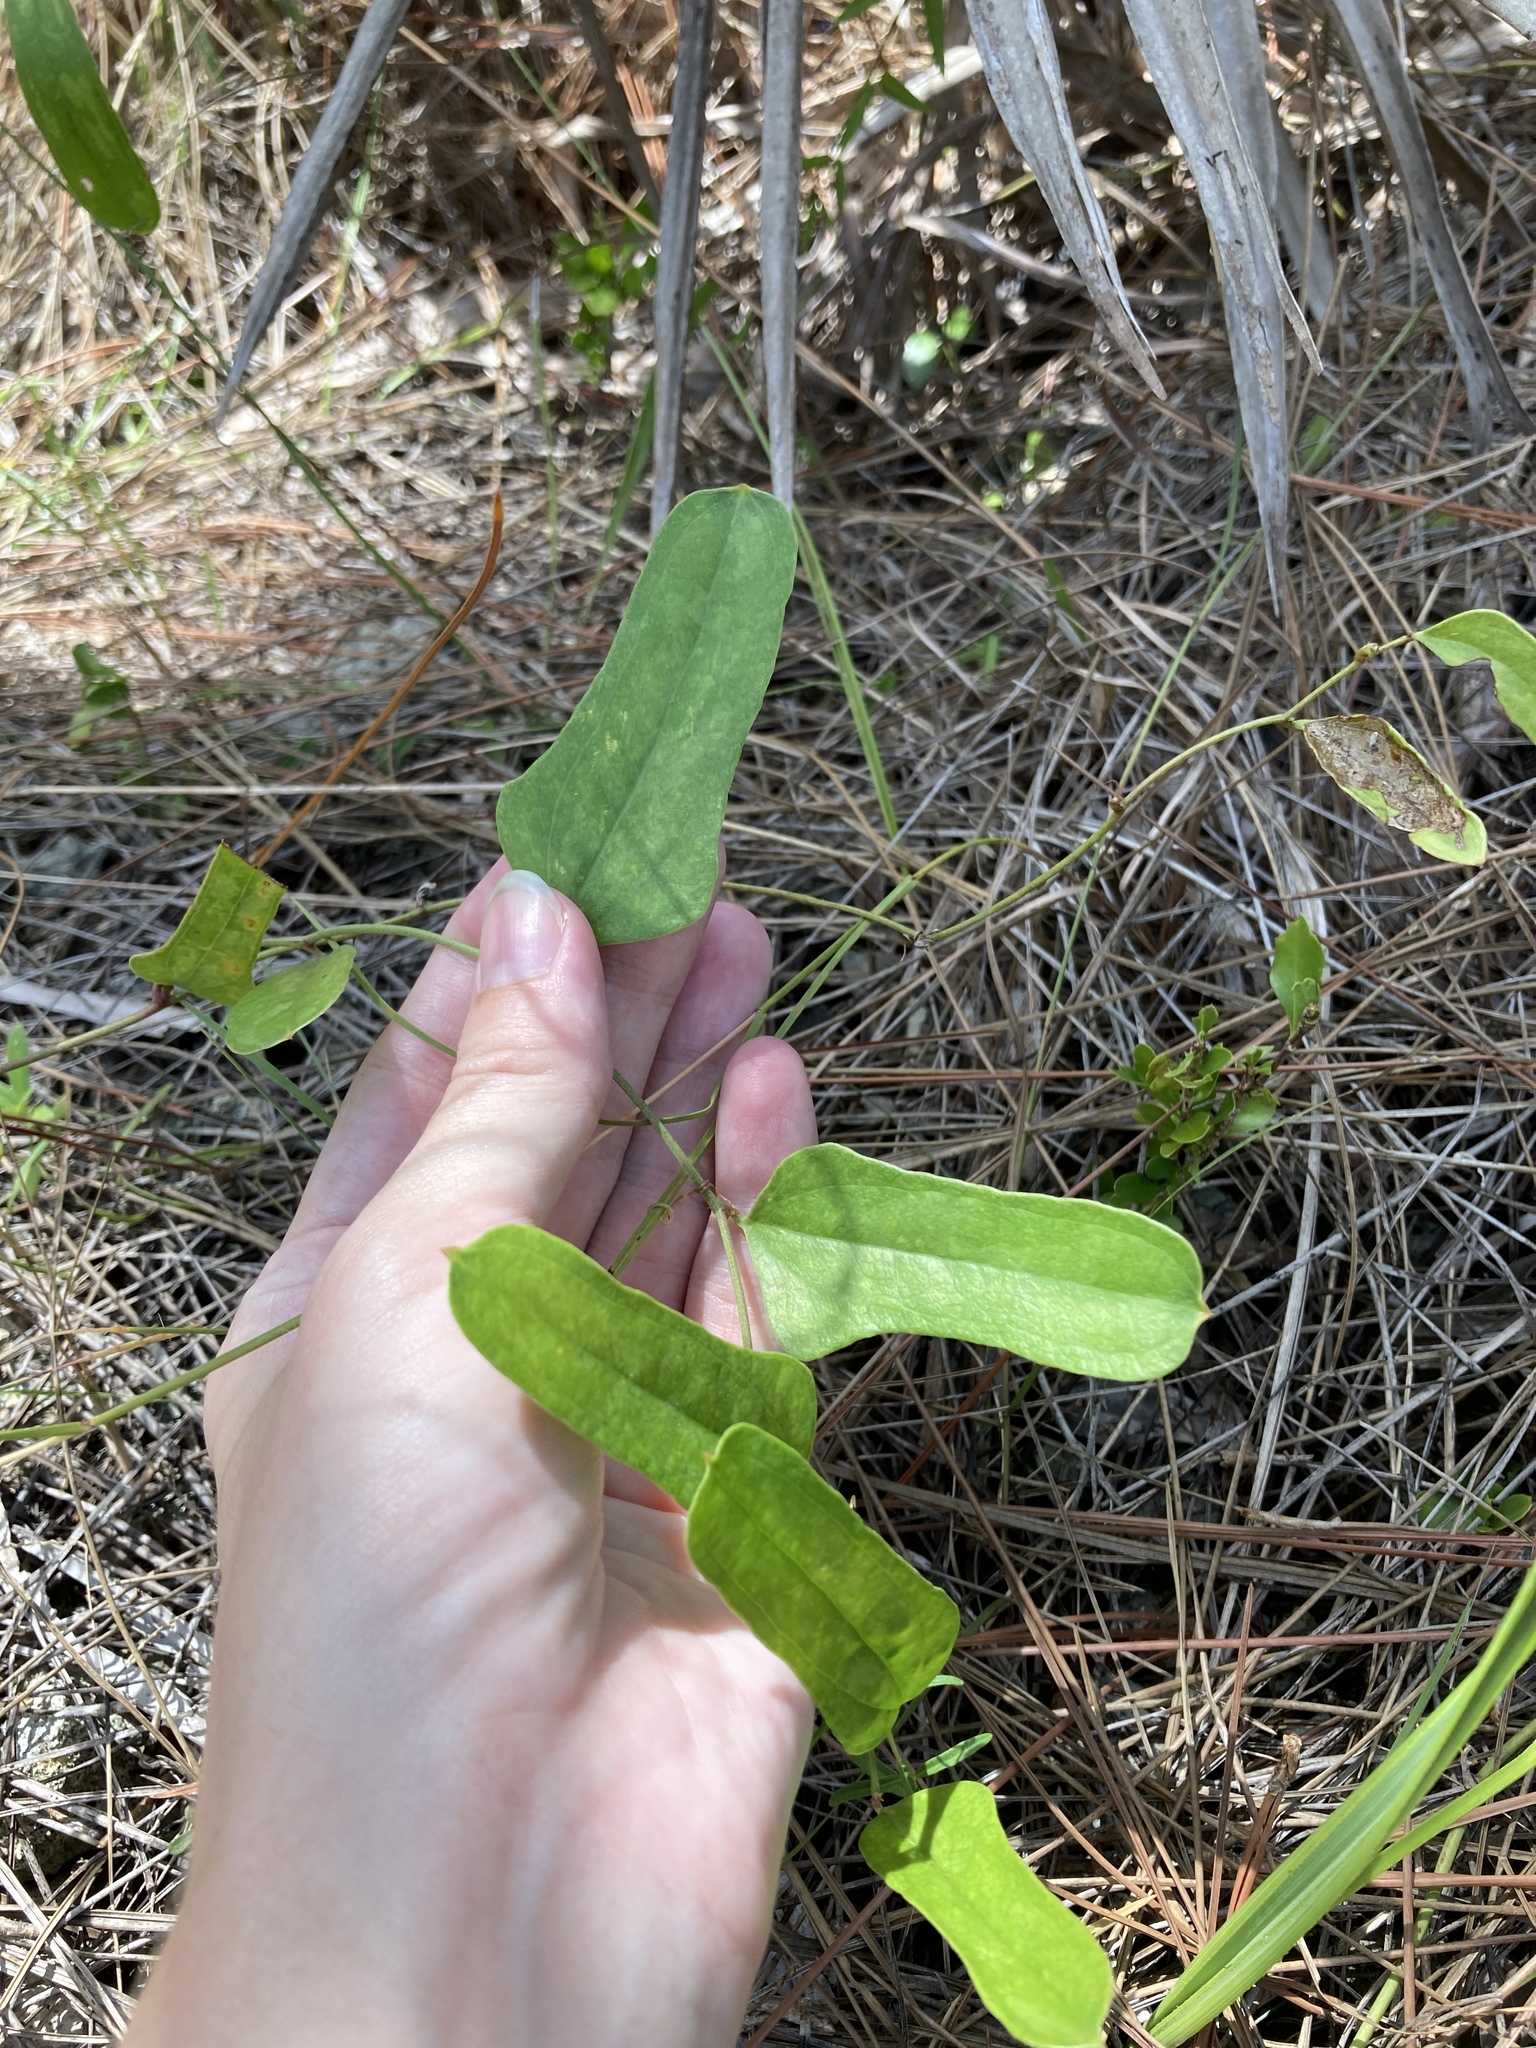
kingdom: Plantae
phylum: Tracheophyta
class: Liliopsida
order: Liliales
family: Smilacaceae
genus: Smilax
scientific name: Smilax auriculata
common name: Wild bamboo
